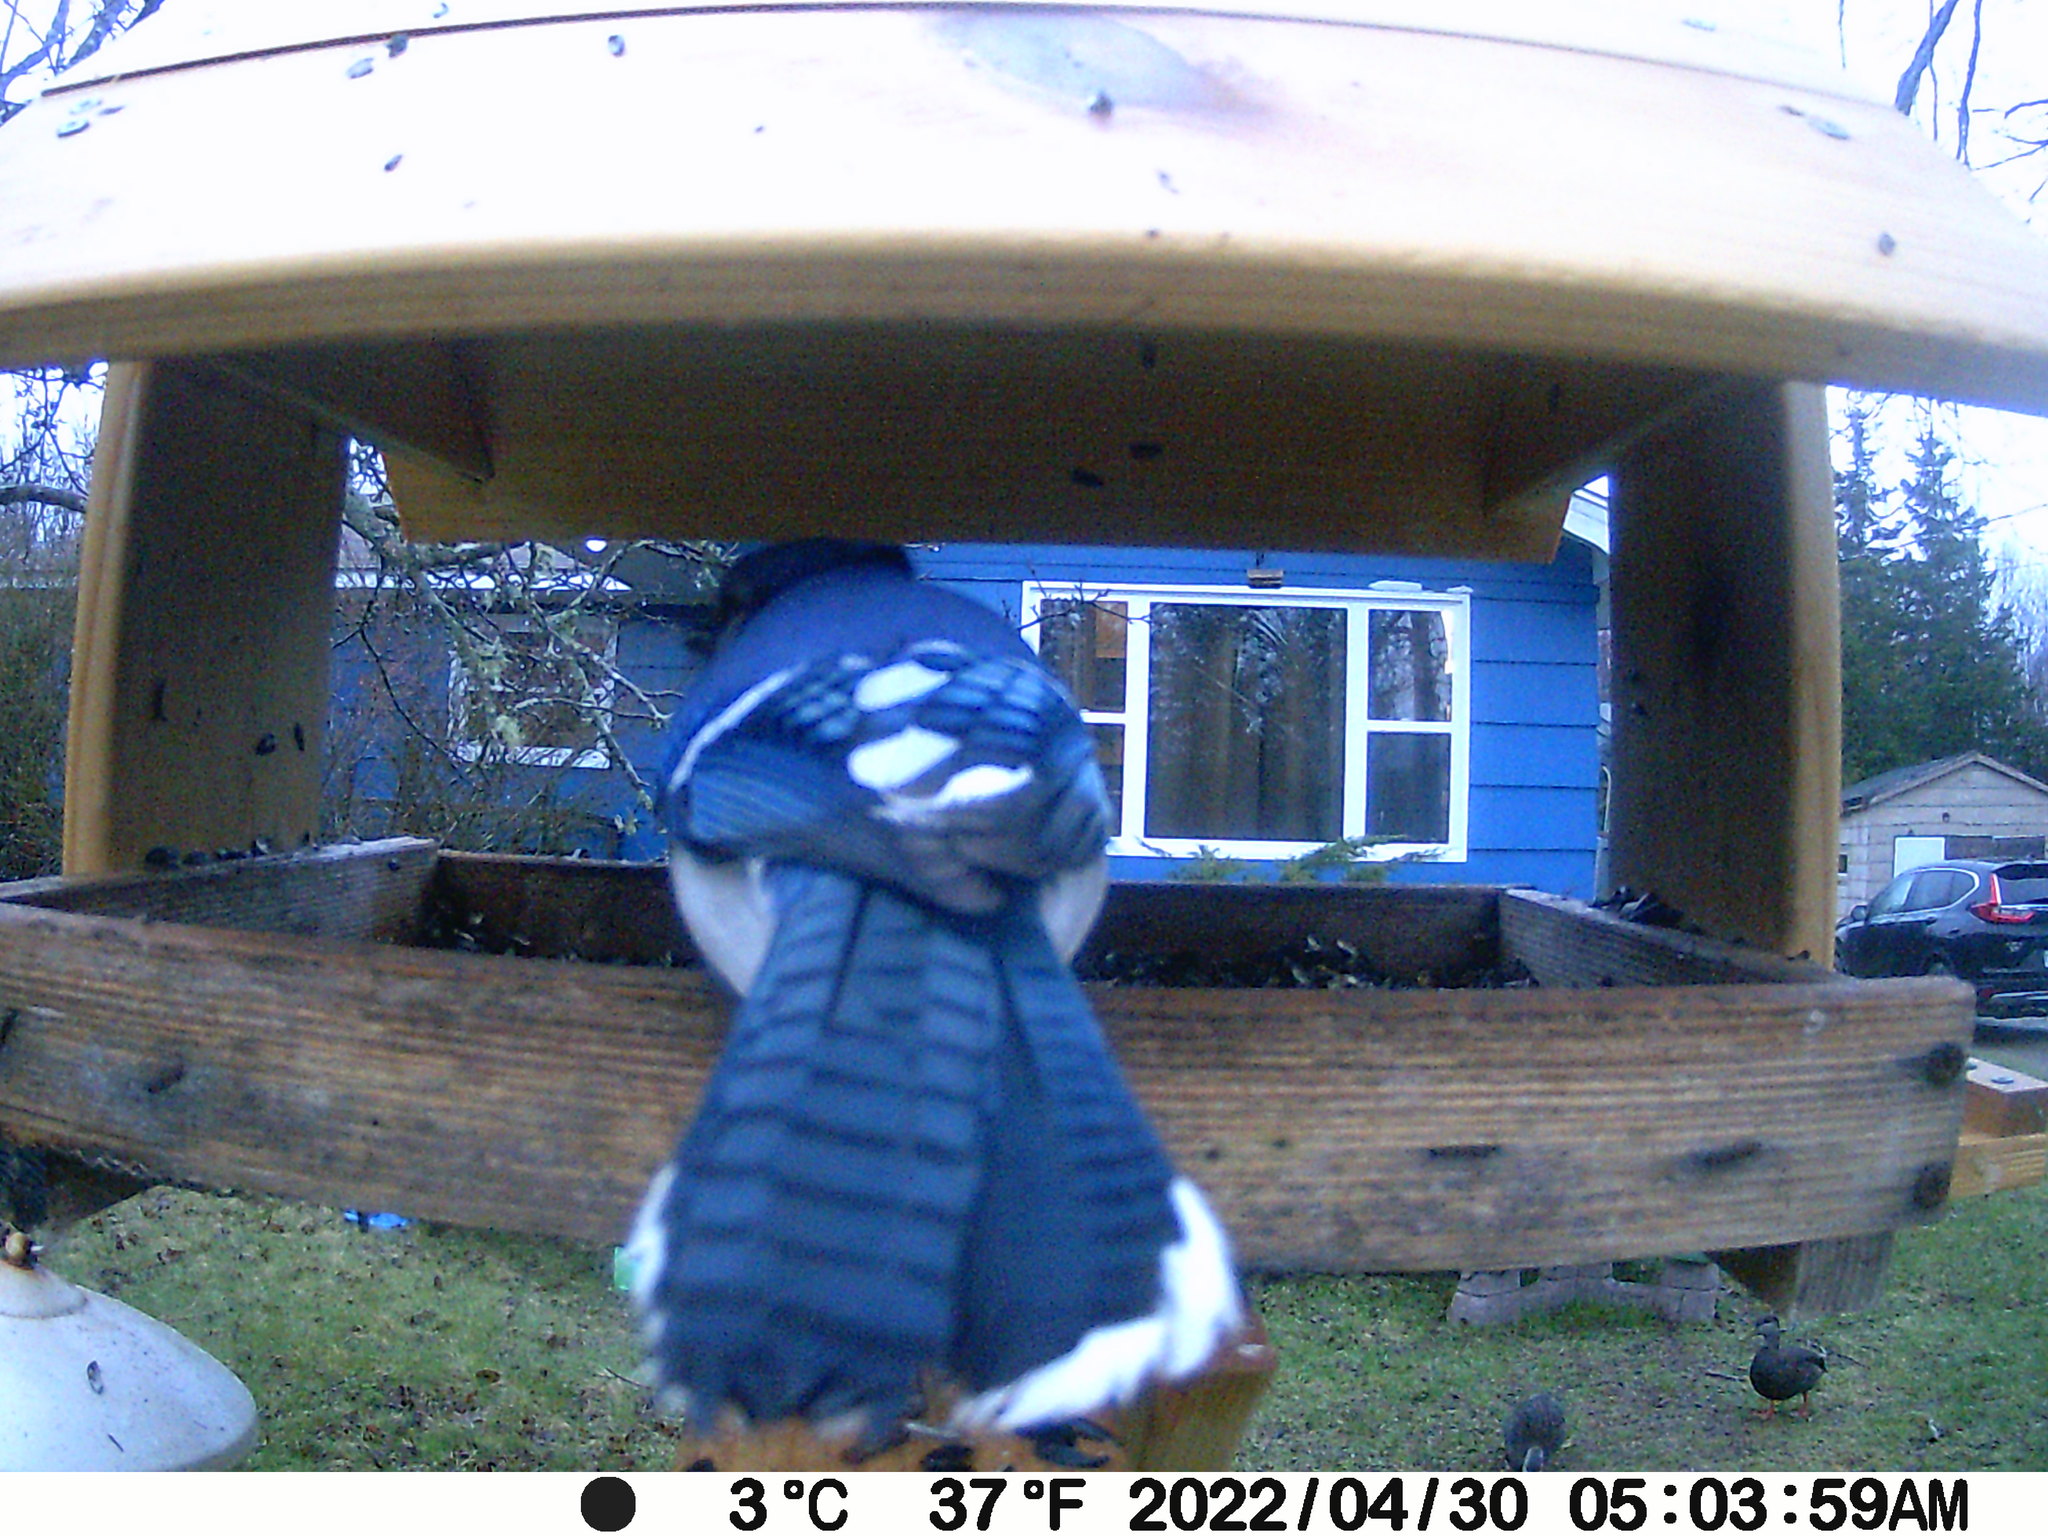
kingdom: Animalia
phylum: Chordata
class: Aves
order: Passeriformes
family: Corvidae
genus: Cyanocitta
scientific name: Cyanocitta cristata
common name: Blue jay
